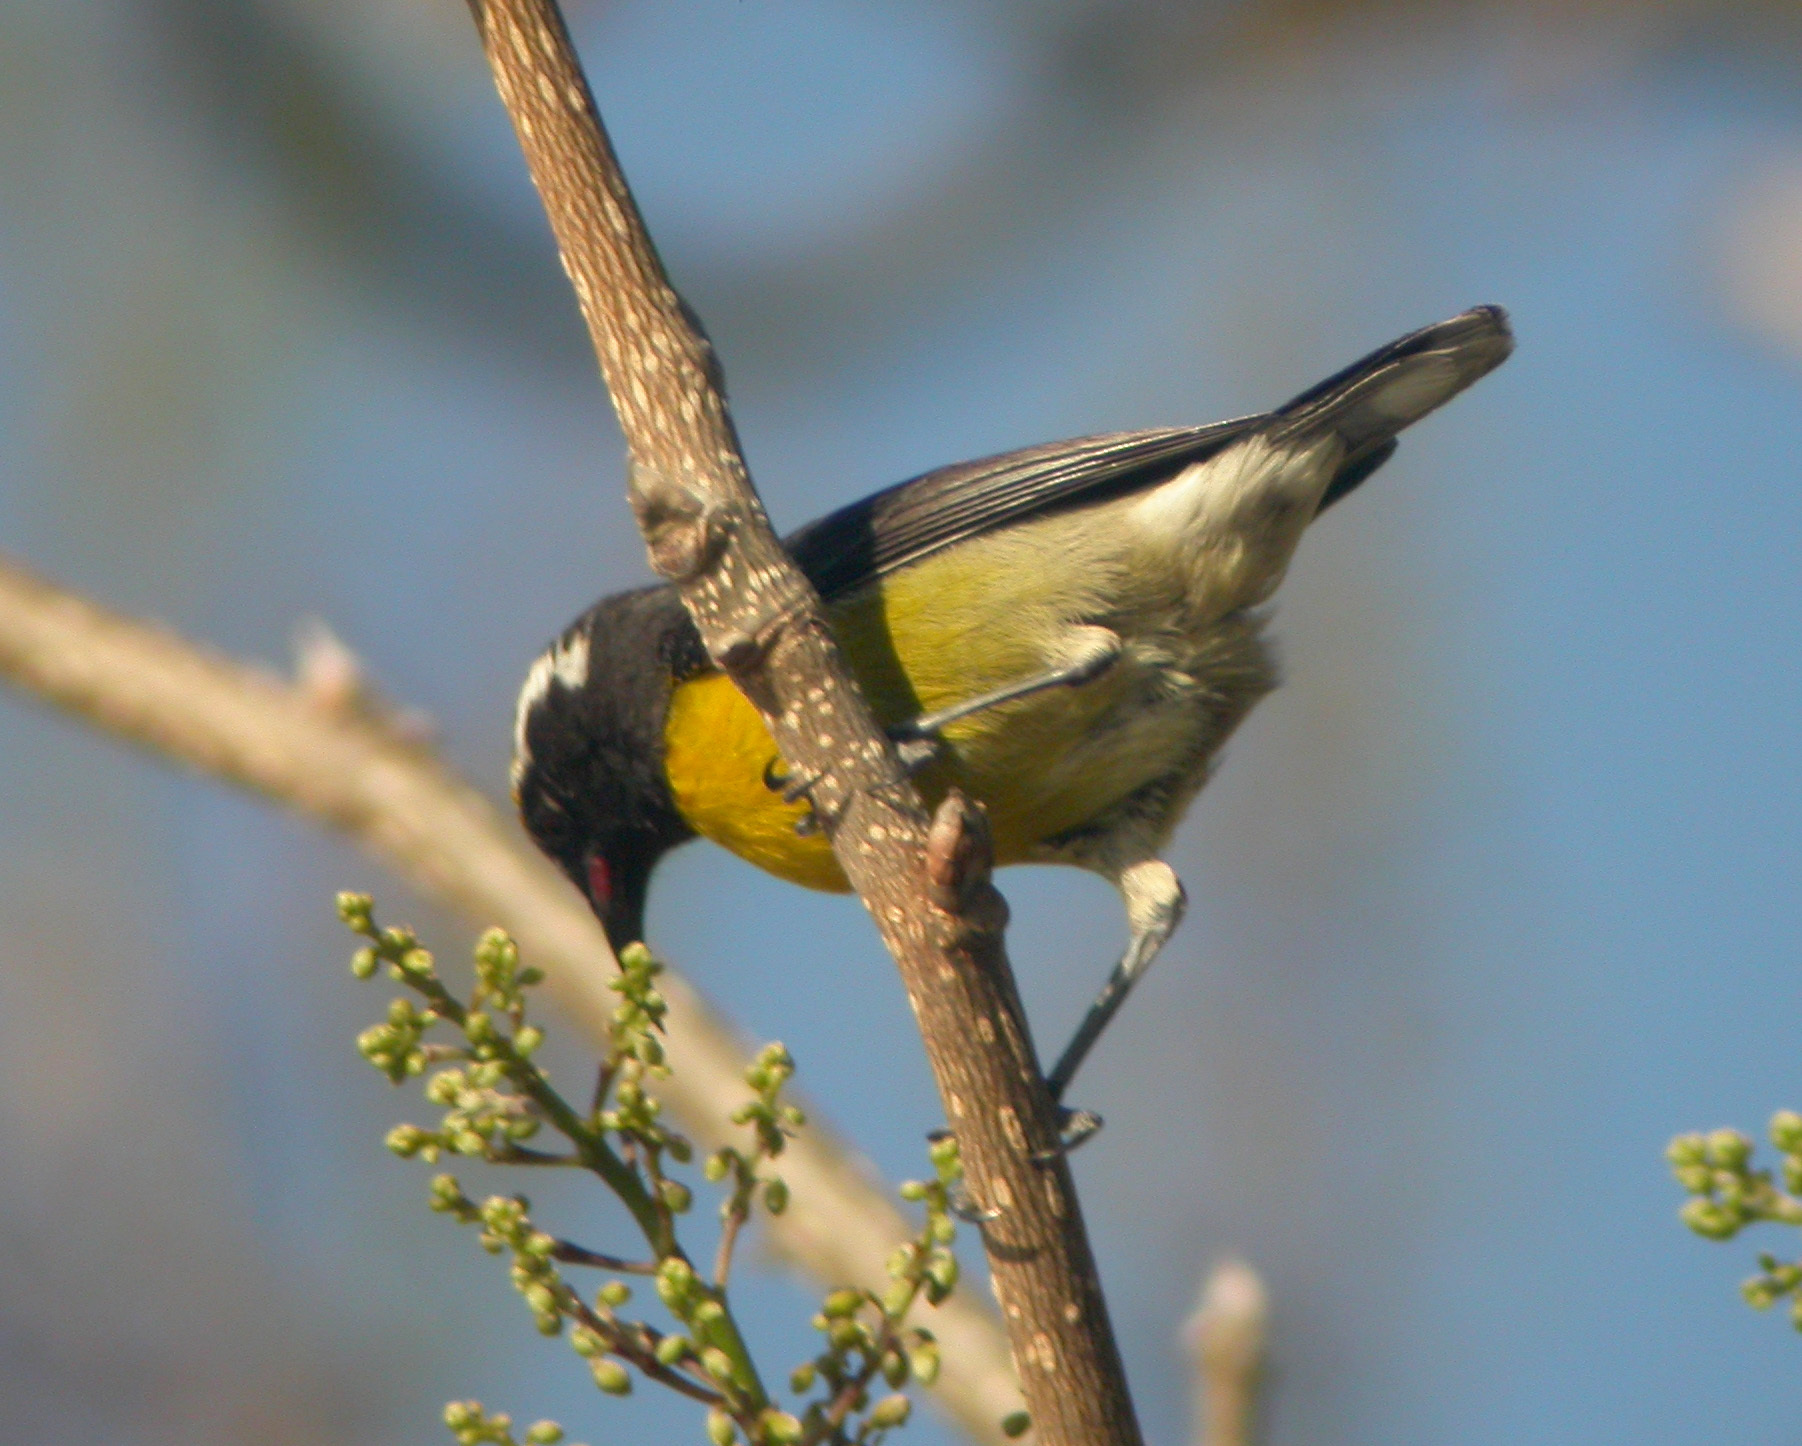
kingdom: Animalia
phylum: Chordata
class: Aves
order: Passeriformes
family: Thraupidae
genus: Coereba
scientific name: Coereba flaveola
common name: Bananaquit
